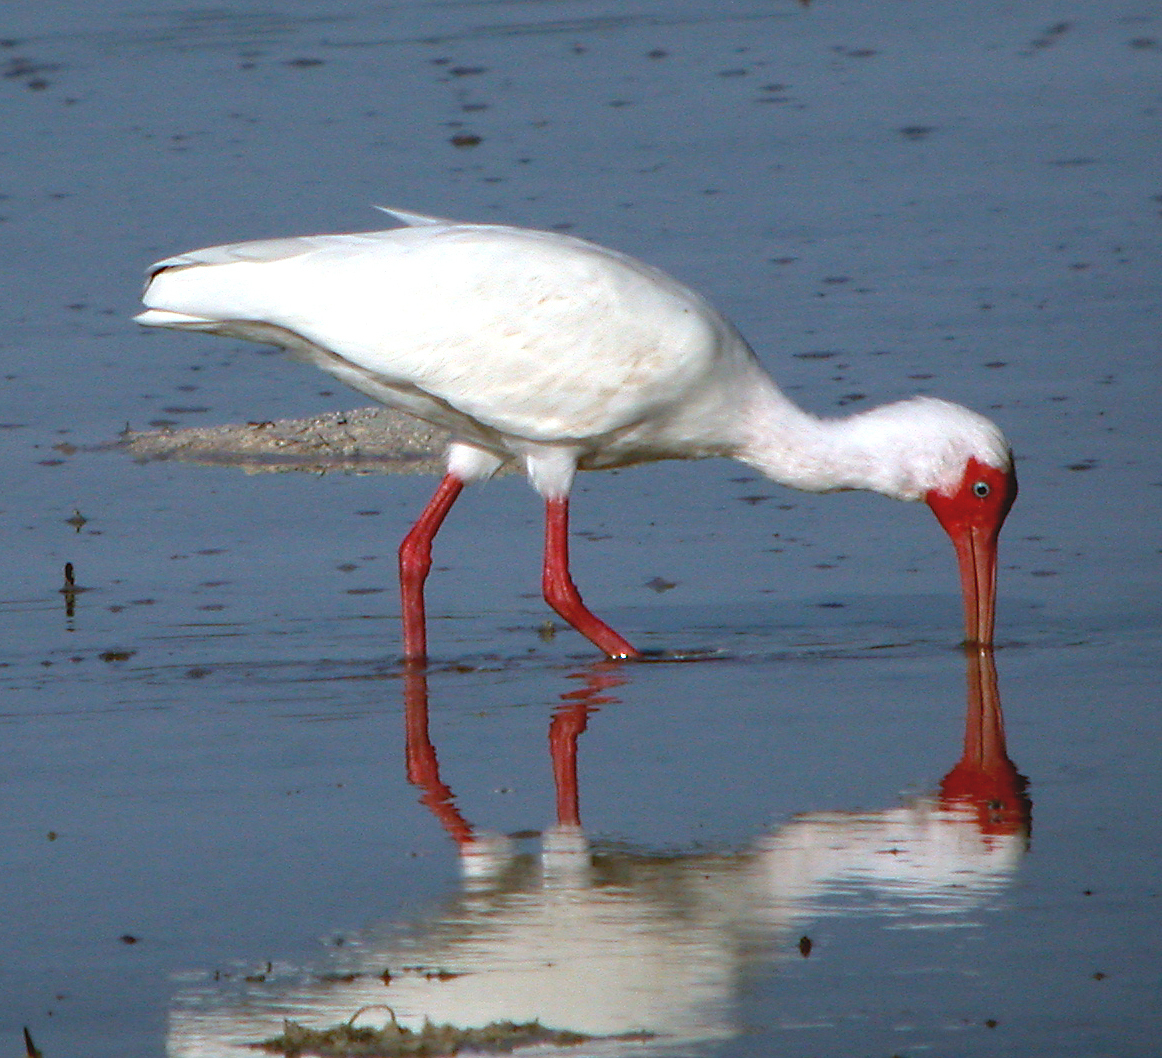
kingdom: Animalia
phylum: Chordata
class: Aves
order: Pelecaniformes
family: Threskiornithidae
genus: Eudocimus
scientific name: Eudocimus albus
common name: White ibis
